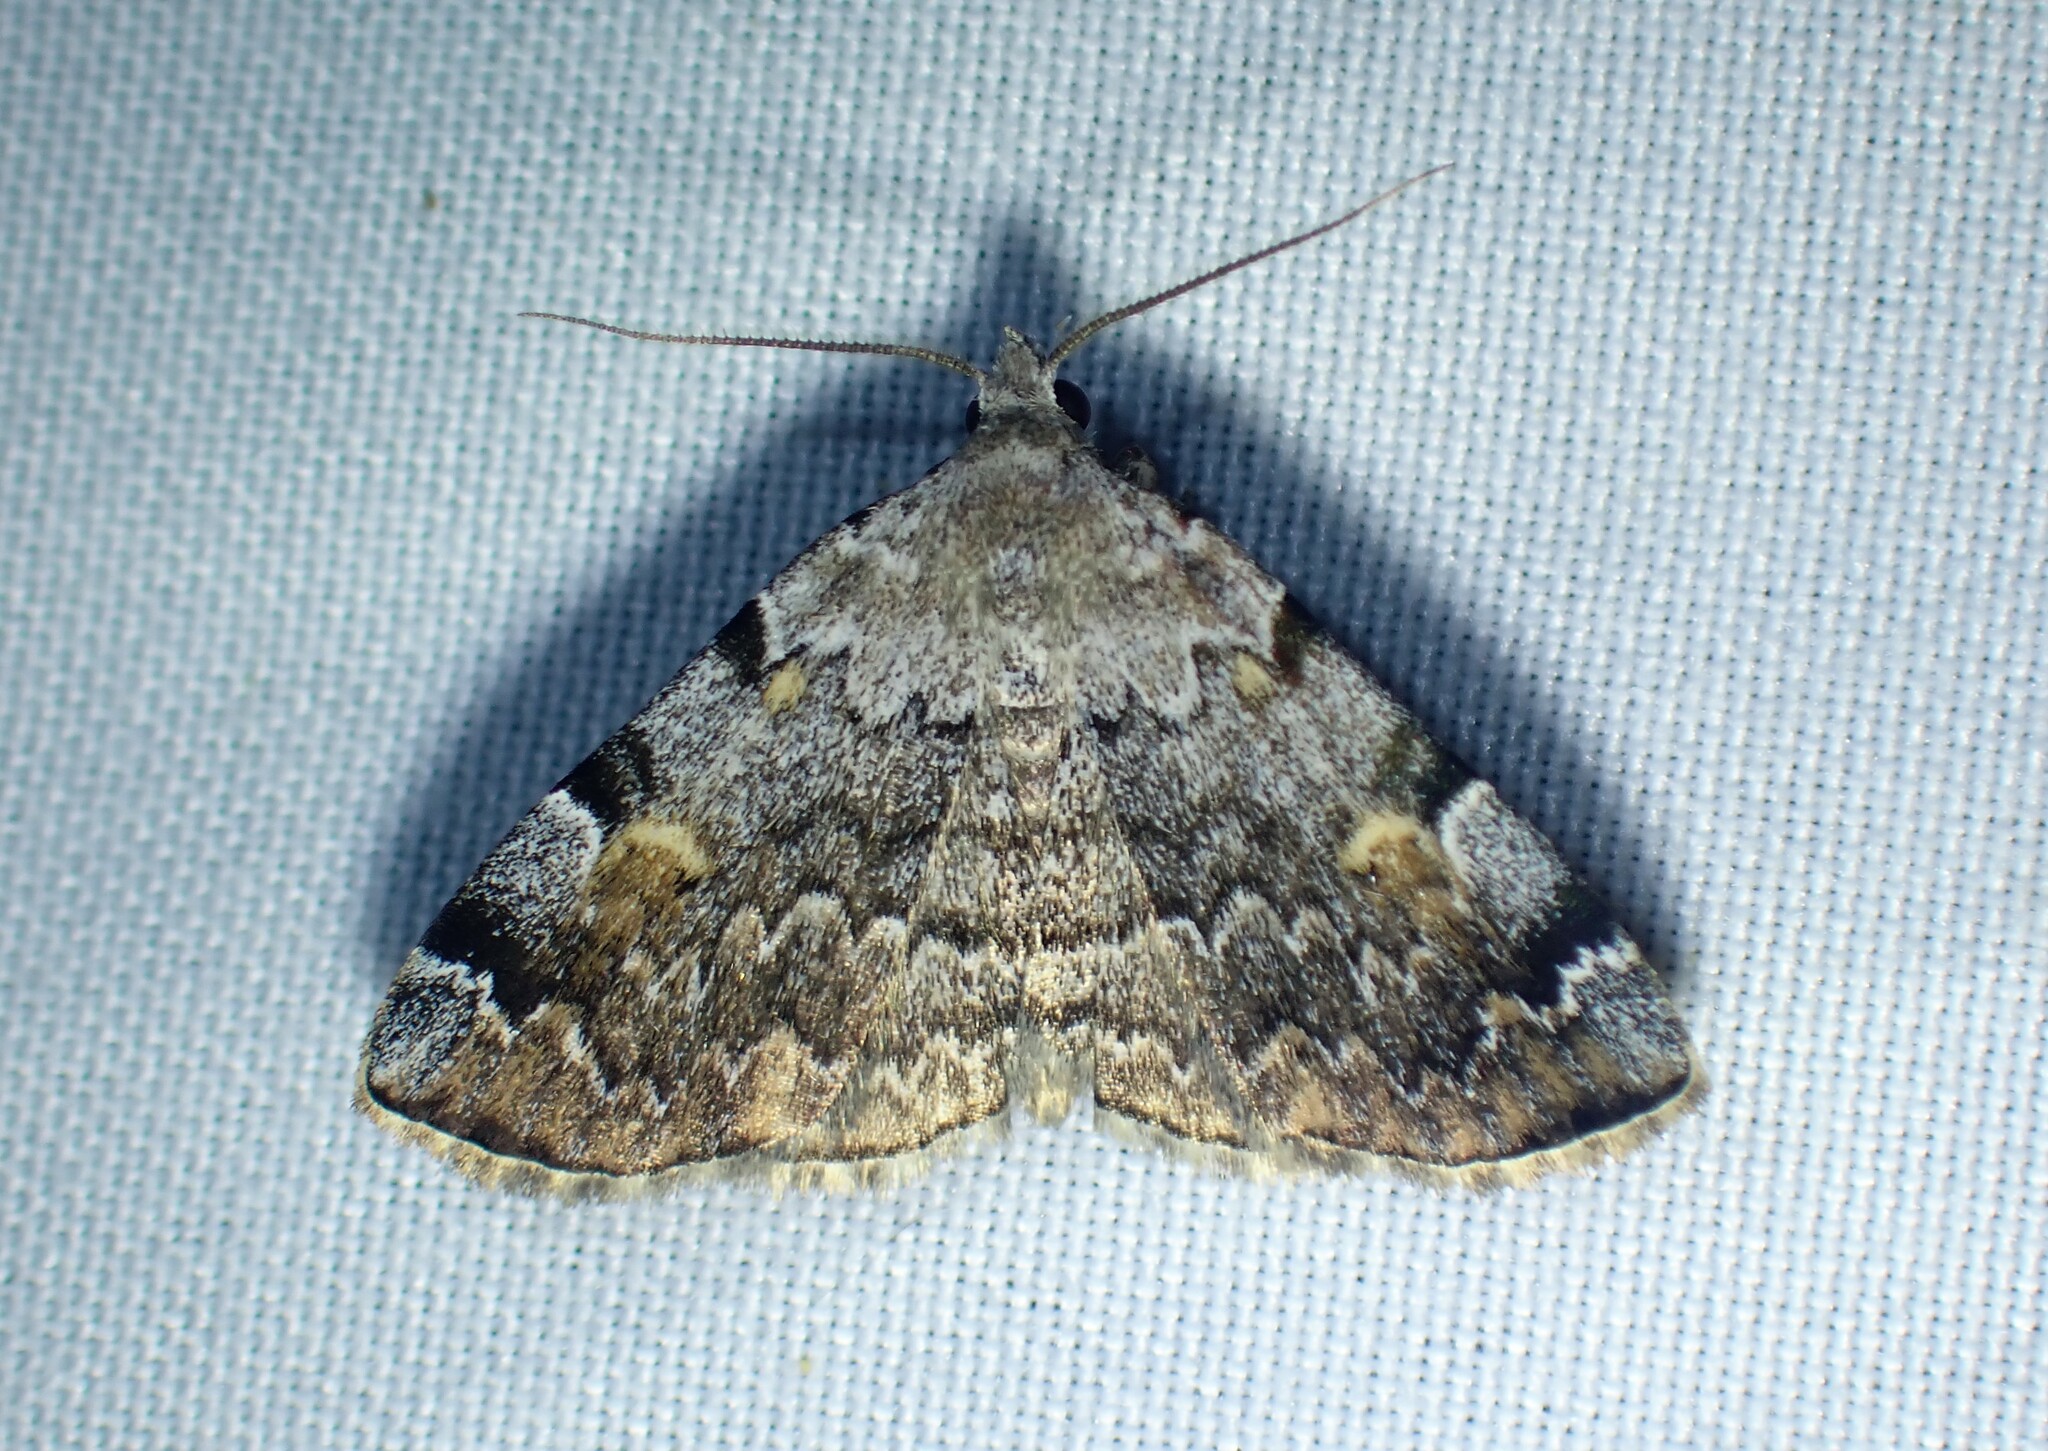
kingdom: Animalia
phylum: Arthropoda
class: Insecta
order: Lepidoptera
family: Erebidae
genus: Idia
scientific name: Idia americalis
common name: American idia moth
